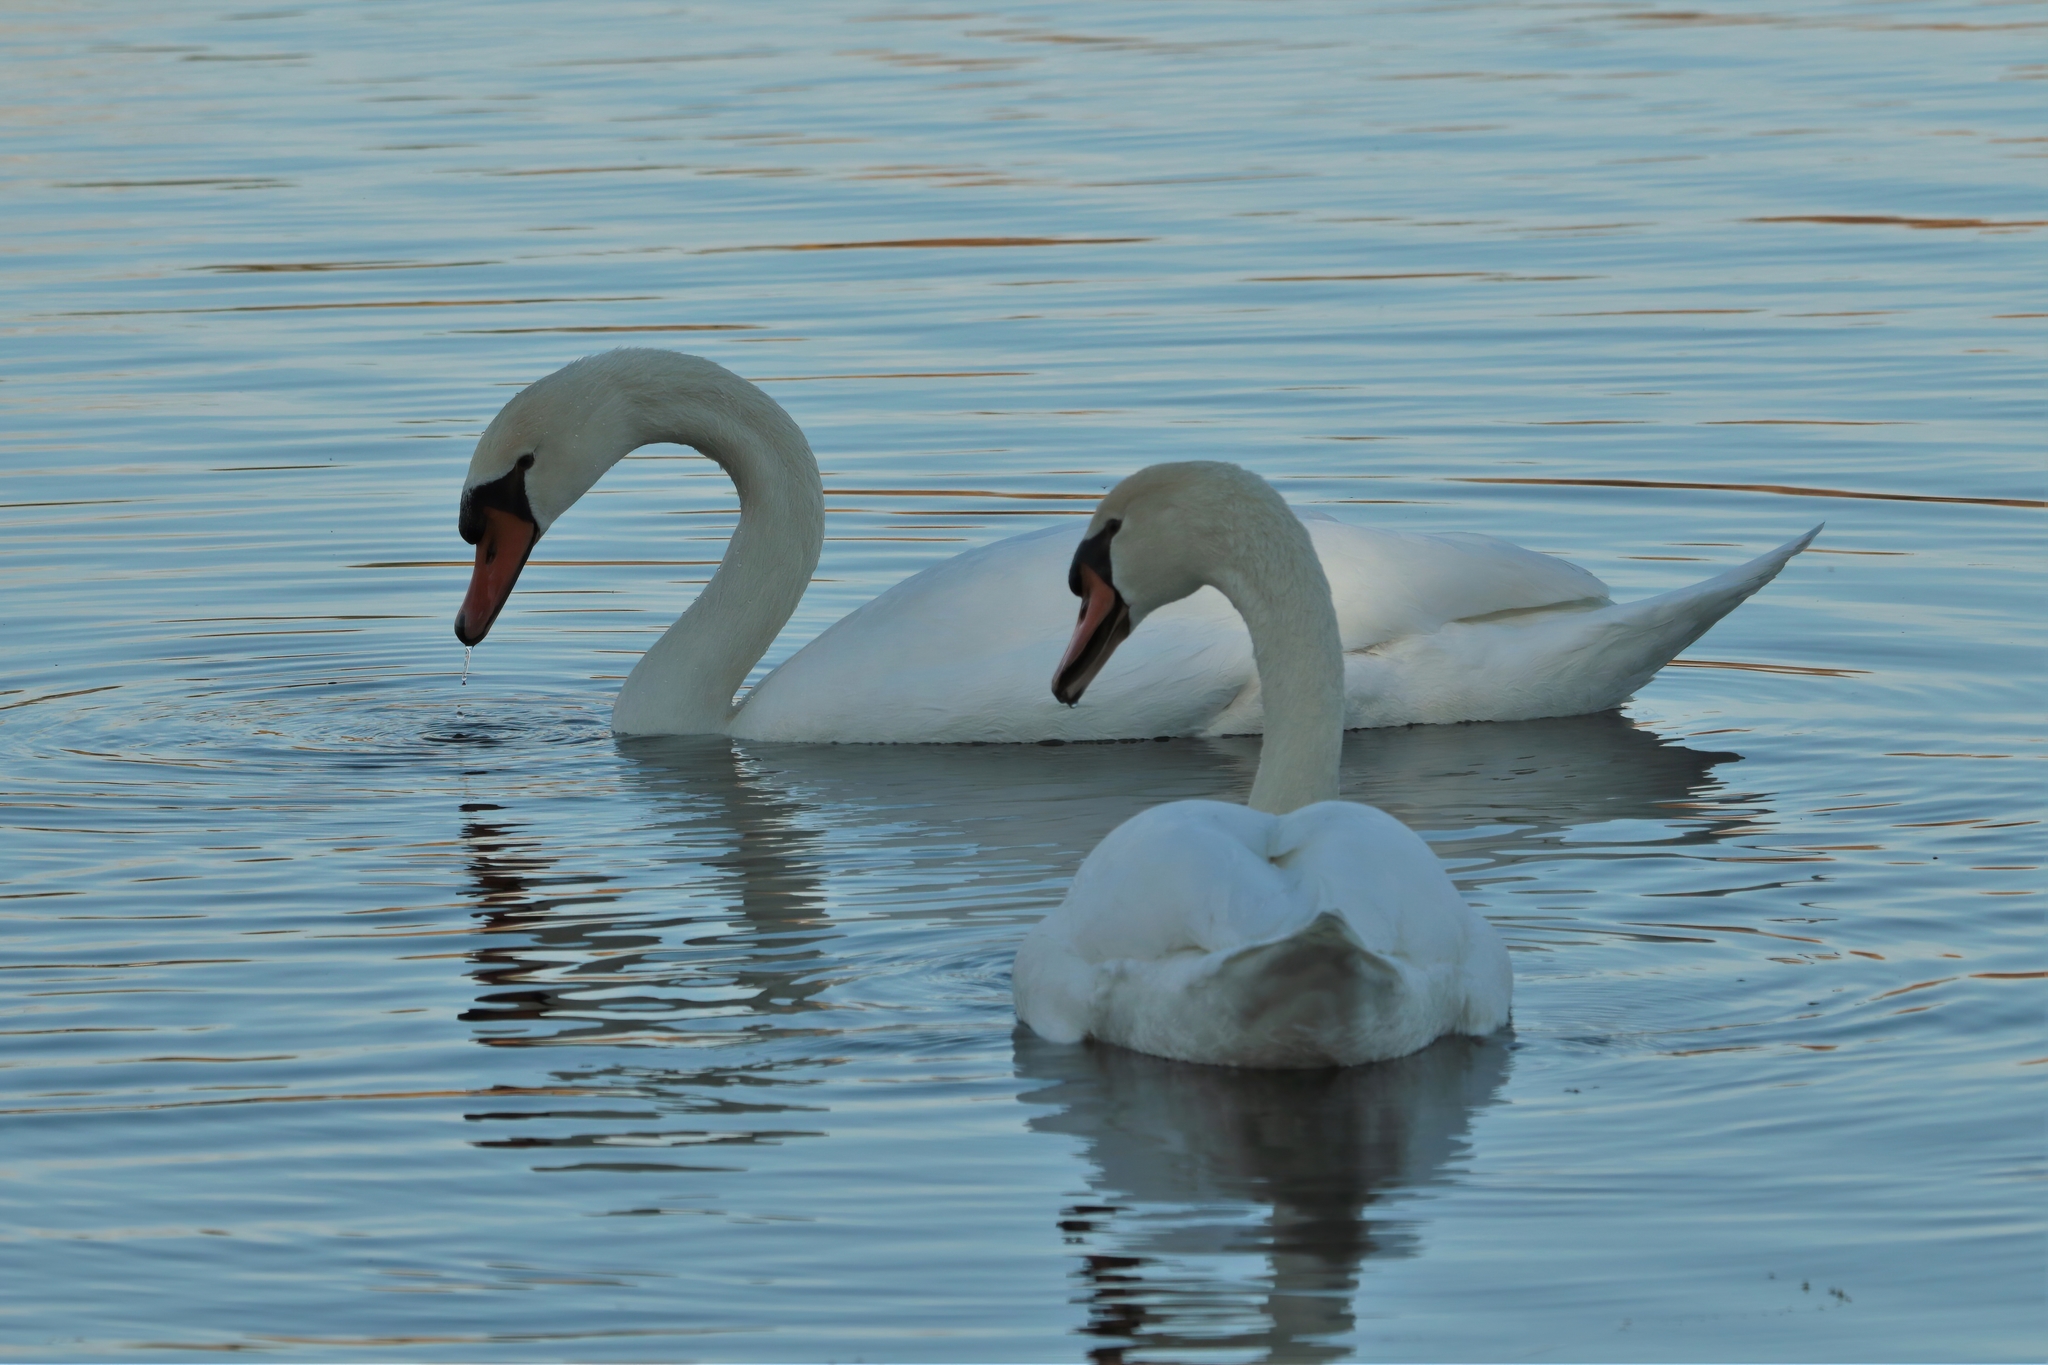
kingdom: Animalia
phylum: Chordata
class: Aves
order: Anseriformes
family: Anatidae
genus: Cygnus
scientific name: Cygnus olor
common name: Mute swan
